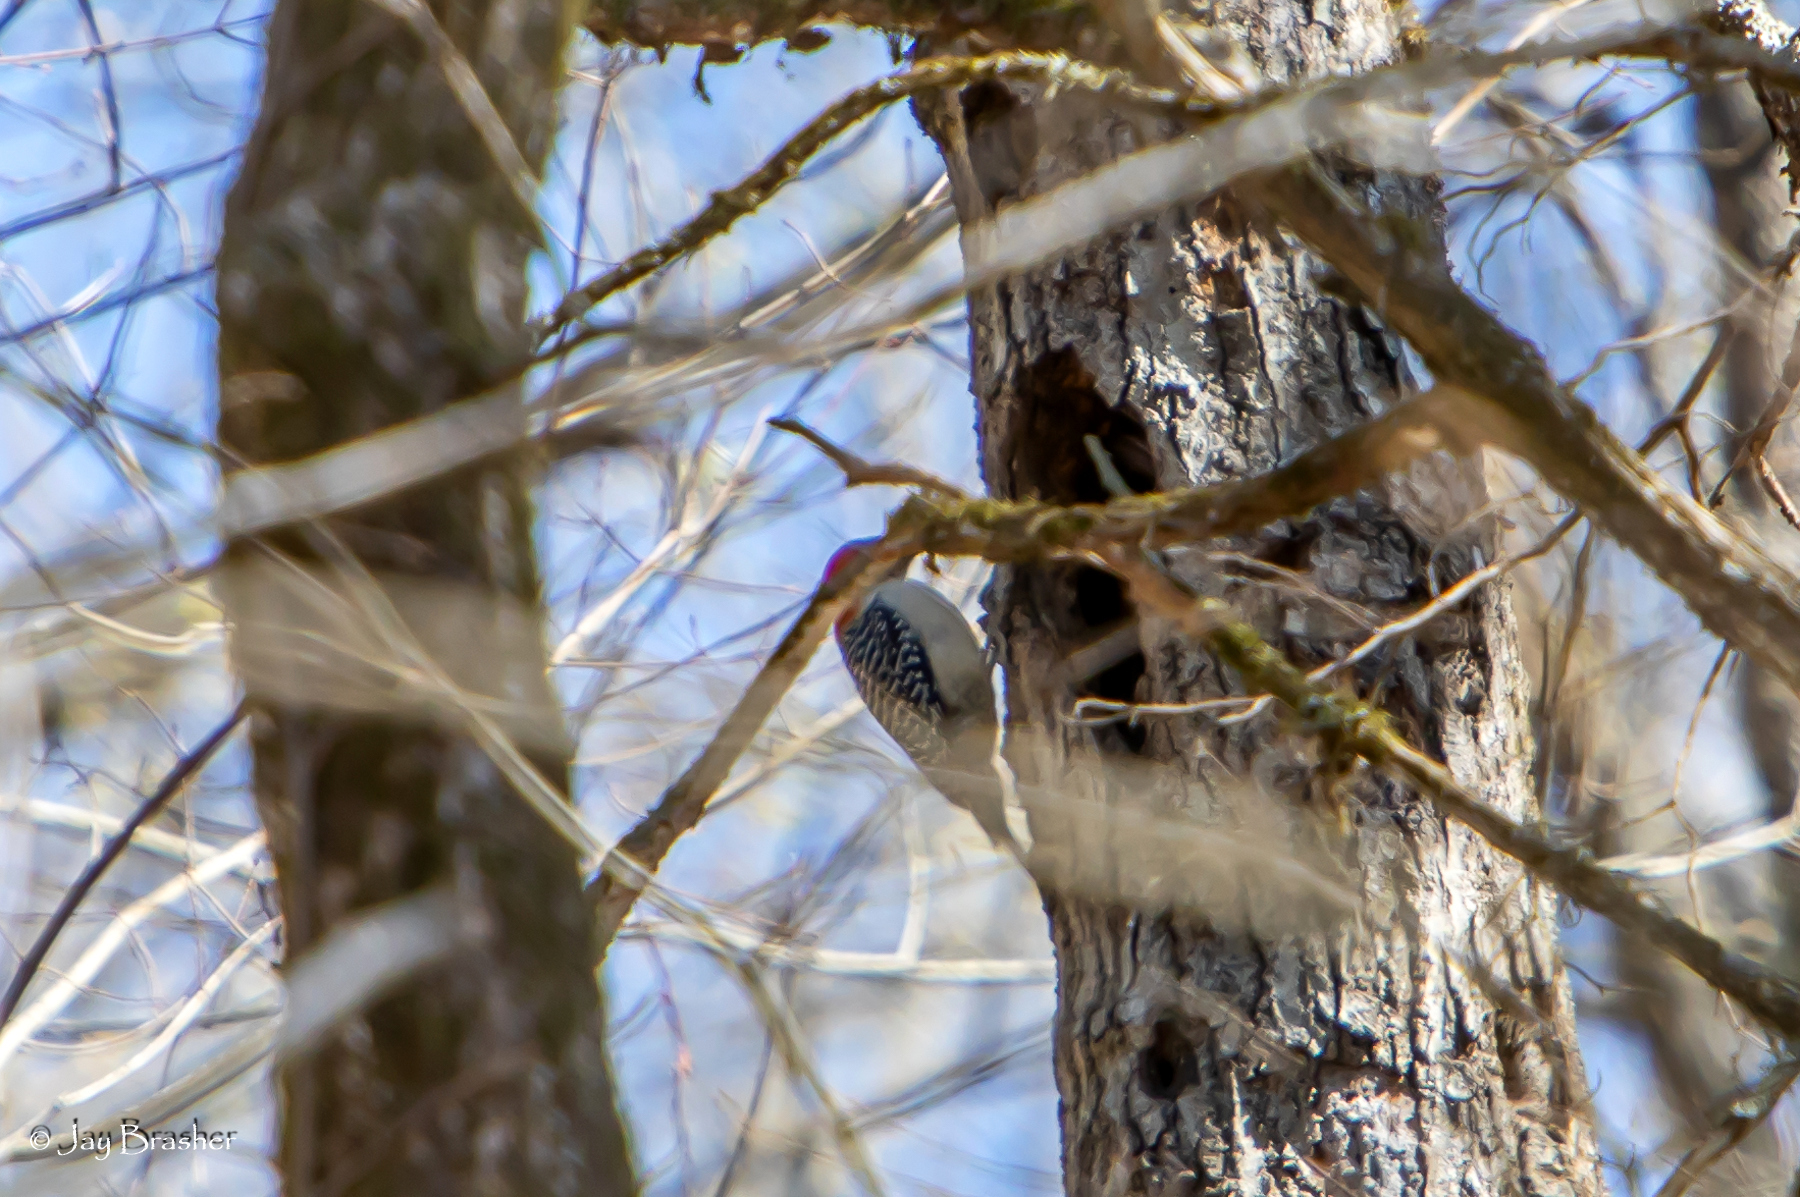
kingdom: Animalia
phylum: Chordata
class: Aves
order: Piciformes
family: Picidae
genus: Melanerpes
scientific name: Melanerpes carolinus
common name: Red-bellied woodpecker
